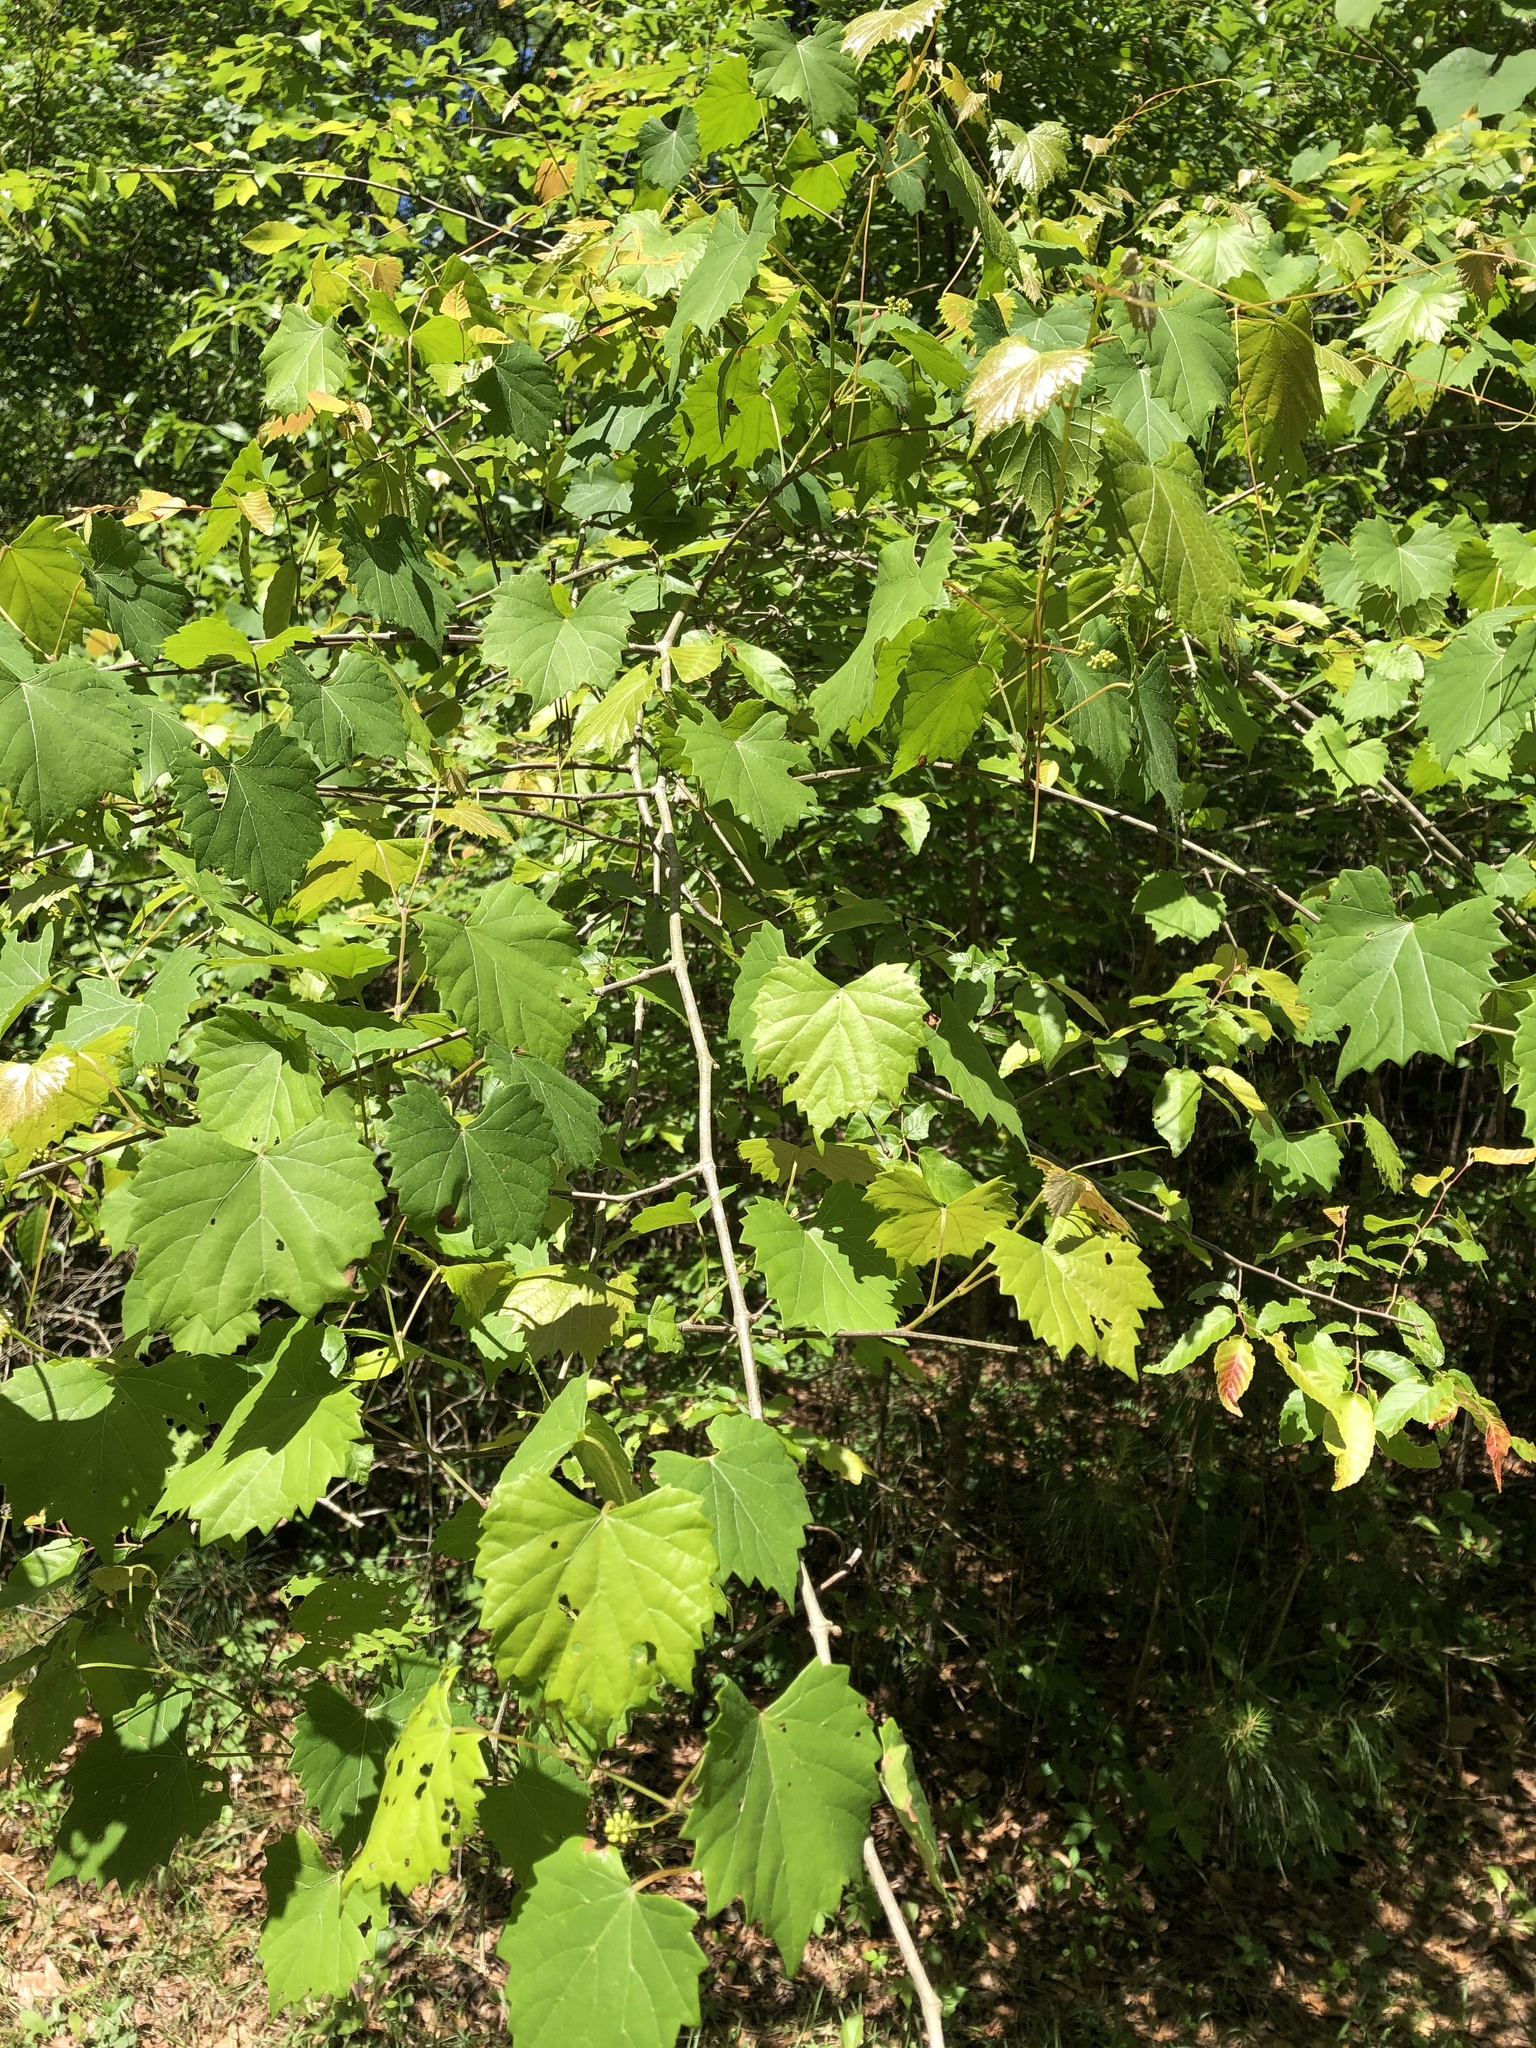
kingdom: Plantae
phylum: Tracheophyta
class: Magnoliopsida
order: Vitales
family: Vitaceae
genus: Vitis
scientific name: Vitis rotundifolia
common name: Muscadine grape
